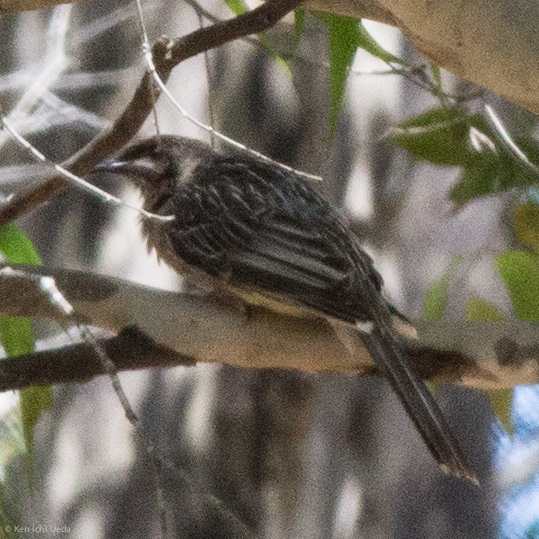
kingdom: Animalia
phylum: Chordata
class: Aves
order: Passeriformes
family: Meliphagidae
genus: Anthochaera
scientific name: Anthochaera carunculata
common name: Red wattlebird
